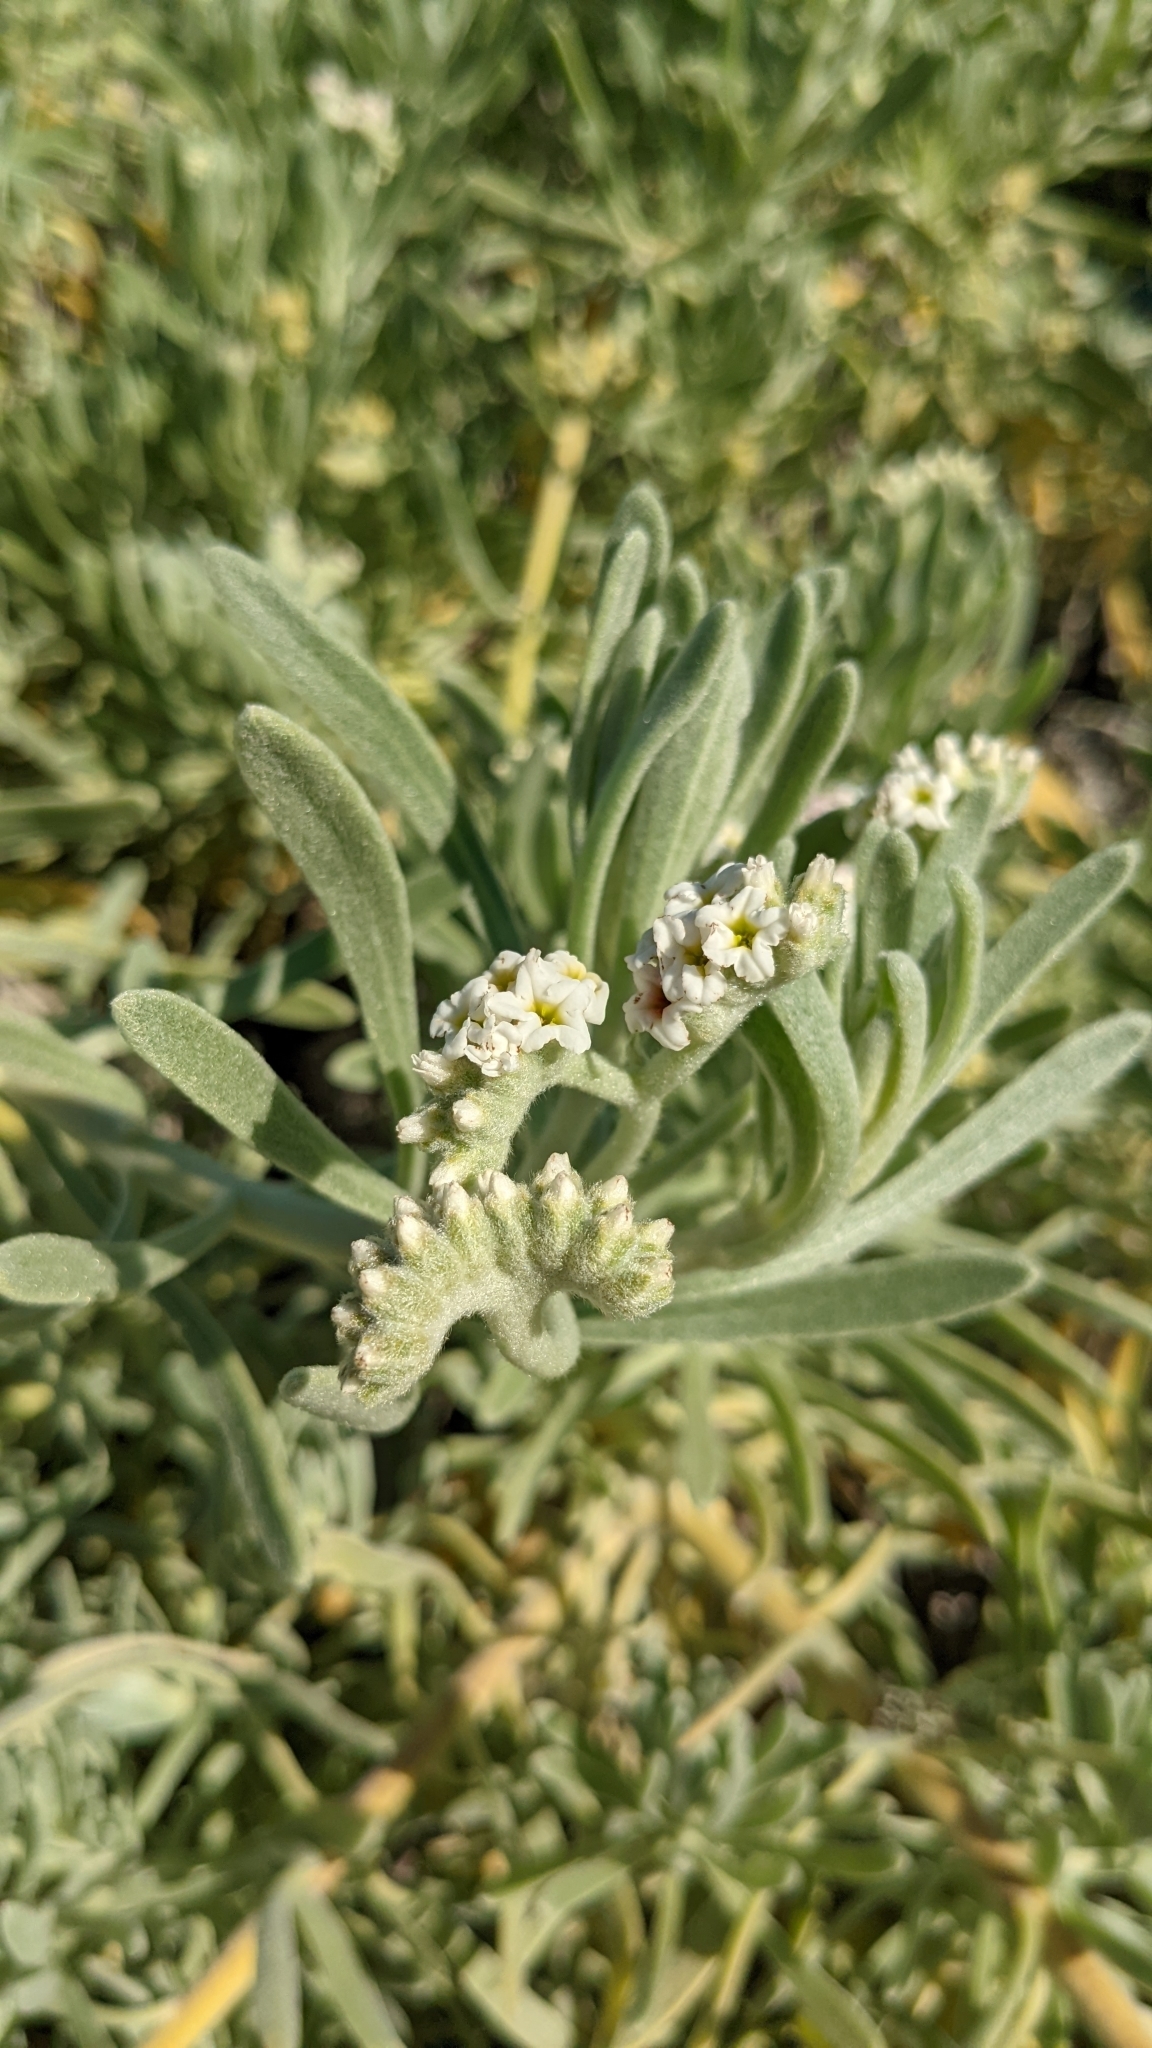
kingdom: Plantae
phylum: Tracheophyta
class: Magnoliopsida
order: Boraginales
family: Heliotropiaceae
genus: Tournefortia
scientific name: Tournefortia gnaphalodes
